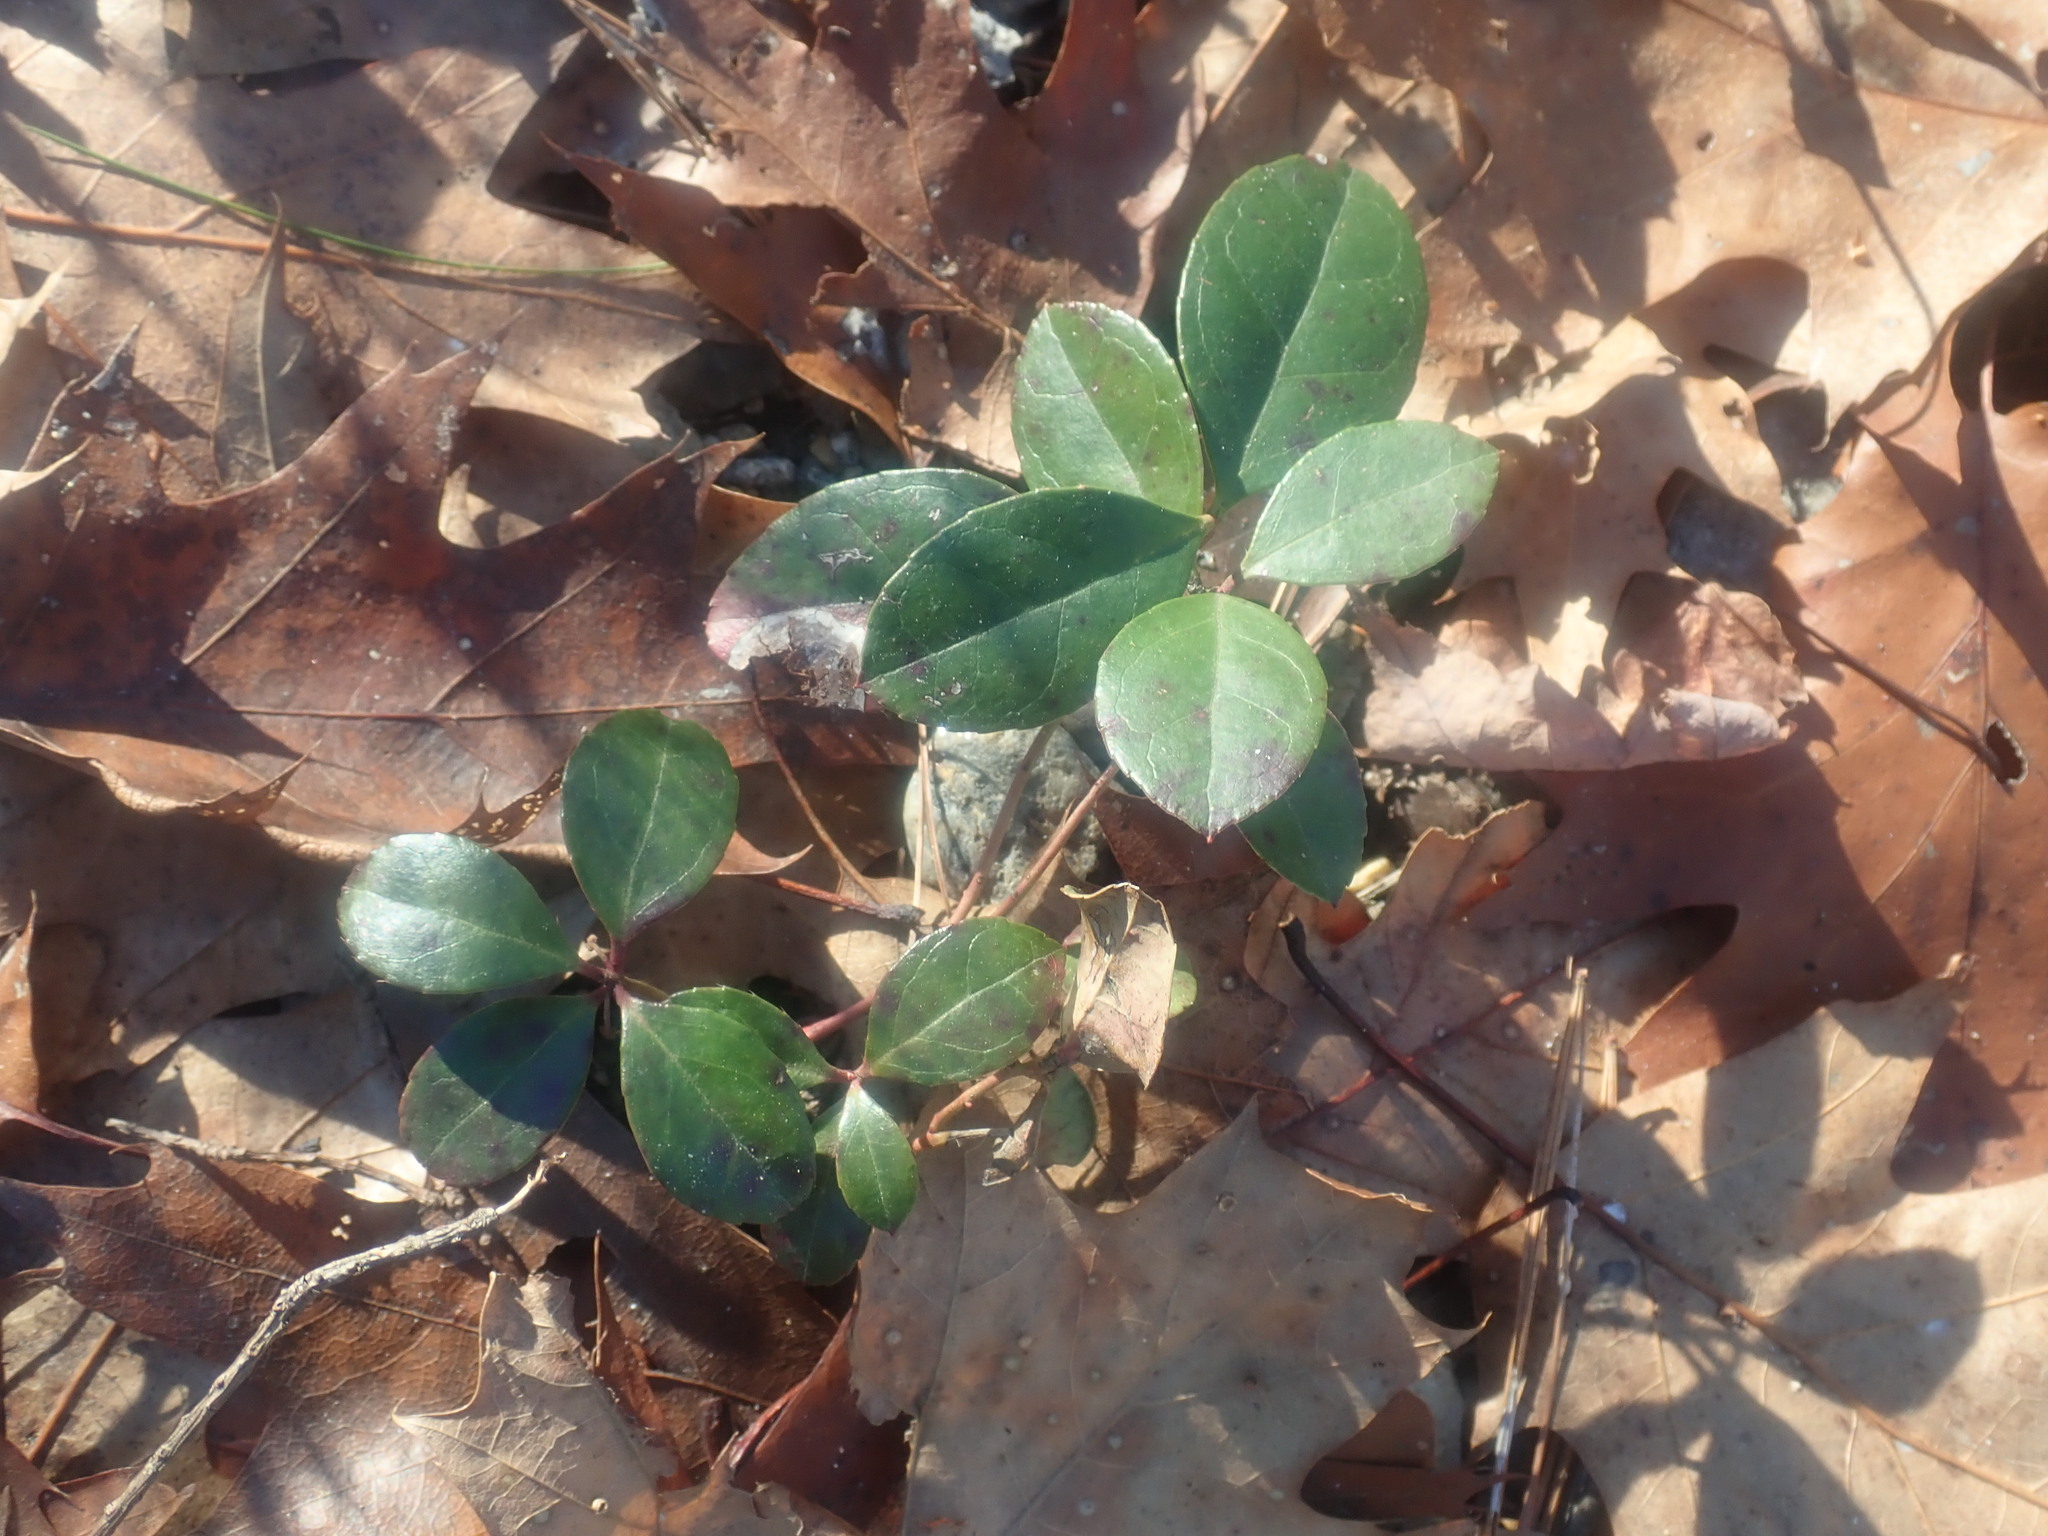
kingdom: Plantae
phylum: Tracheophyta
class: Magnoliopsida
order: Ericales
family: Ericaceae
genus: Gaultheria
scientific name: Gaultheria procumbens
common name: Checkerberry
